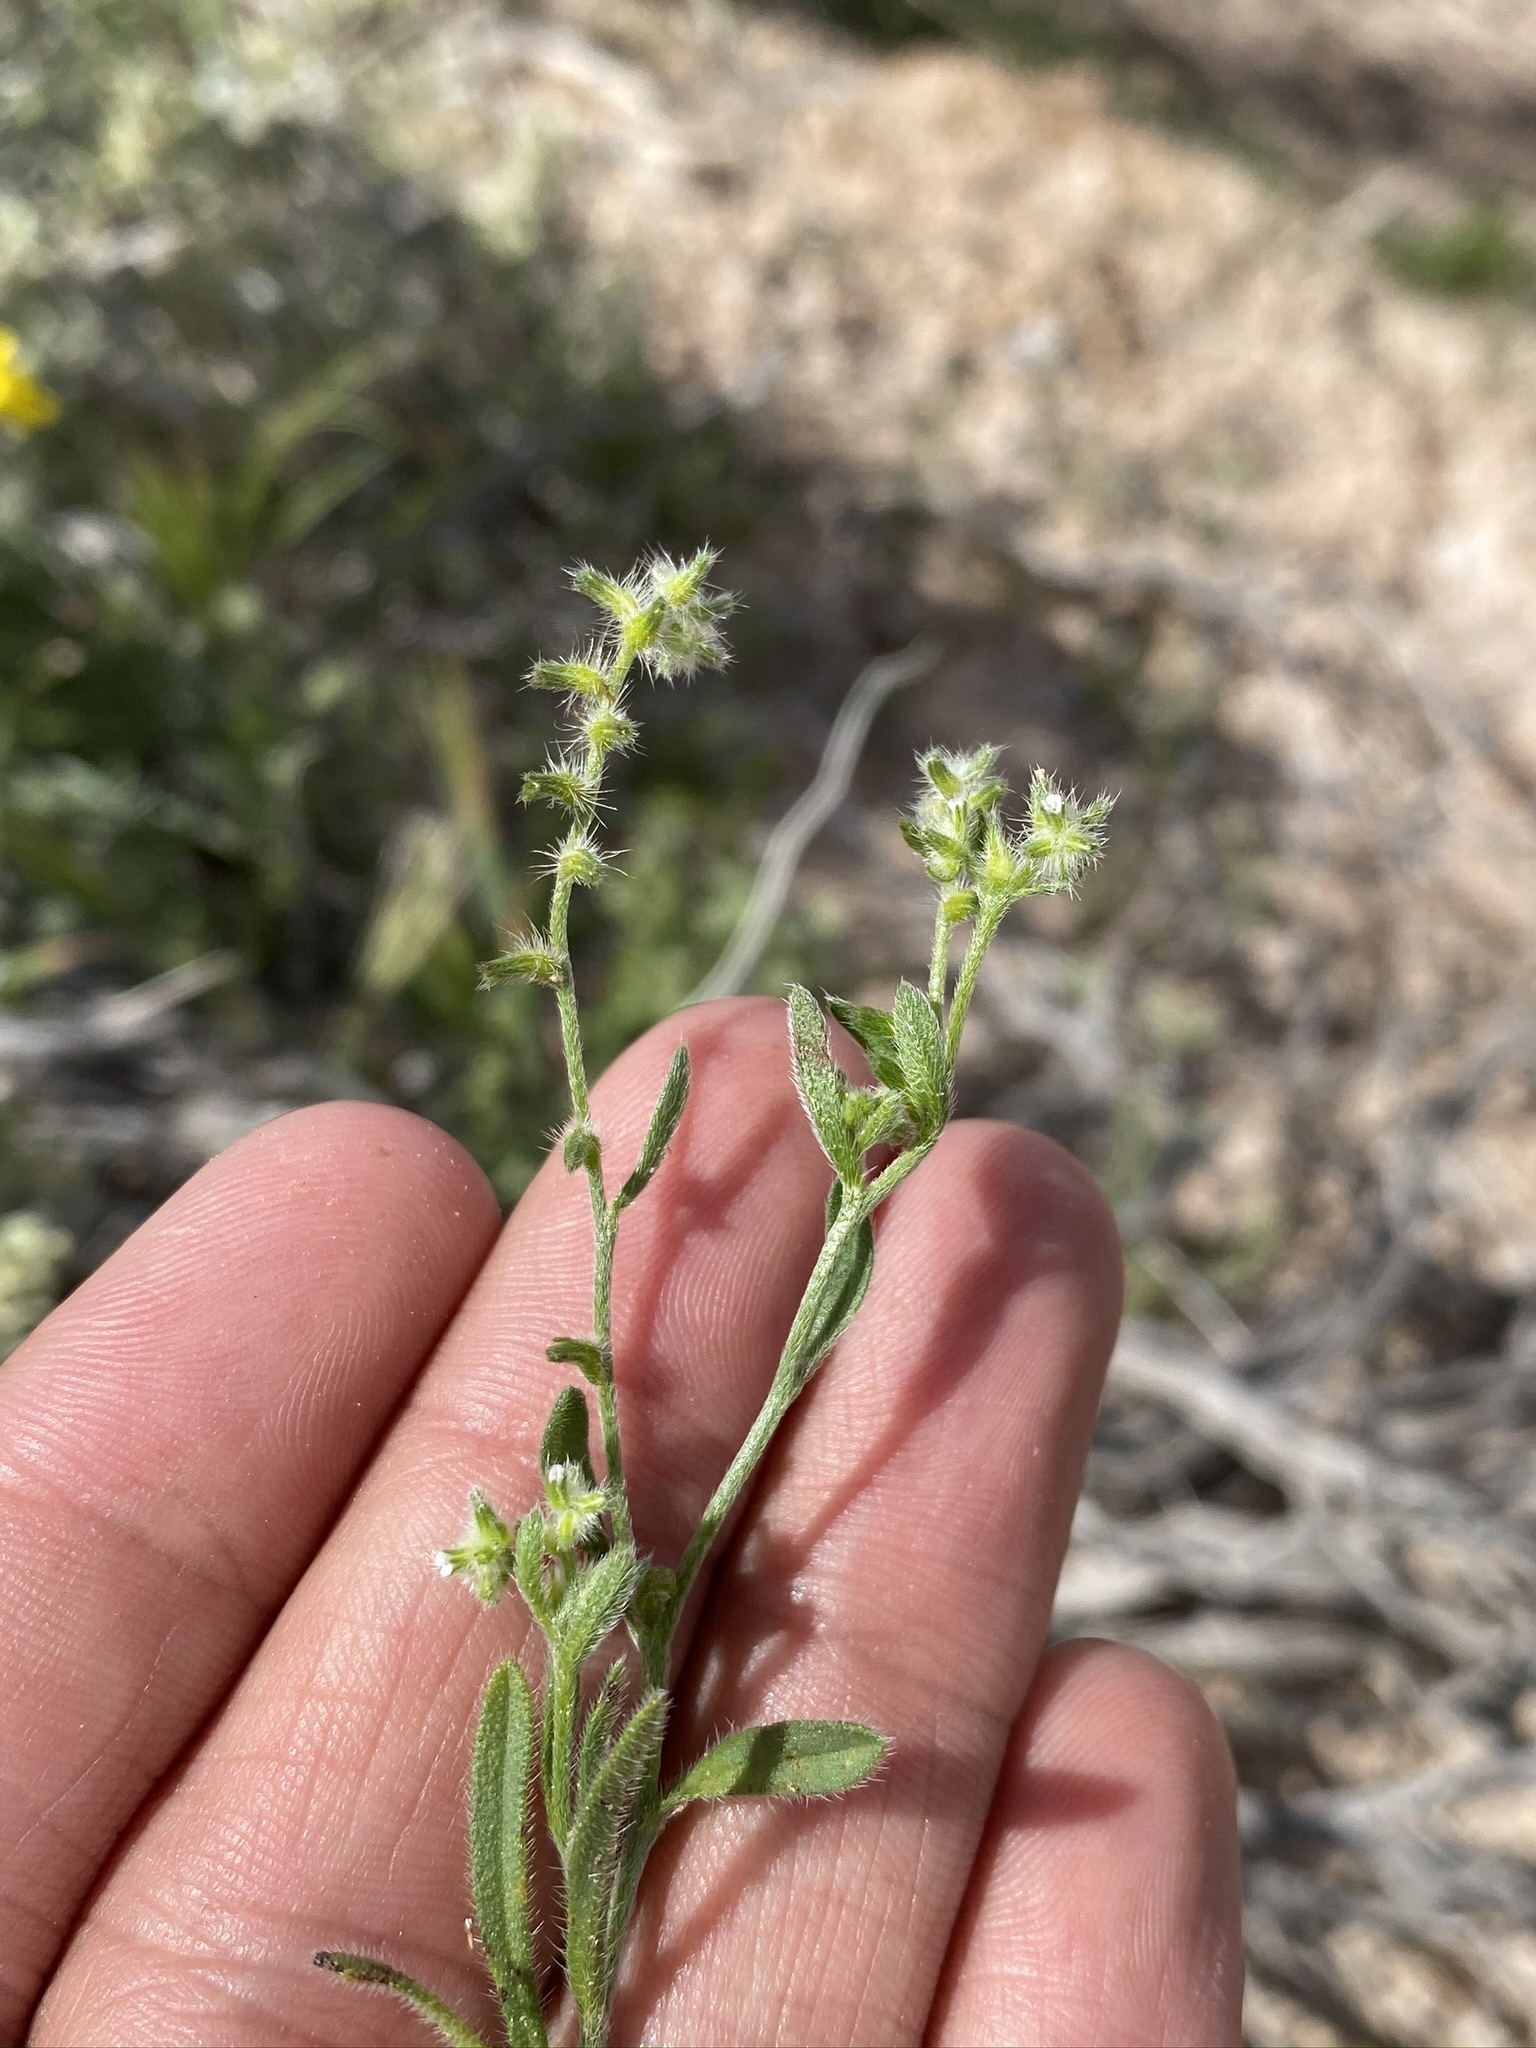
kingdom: Plantae
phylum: Tracheophyta
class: Magnoliopsida
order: Boraginales
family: Boraginaceae
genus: Cryptantha
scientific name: Cryptantha recurvata
